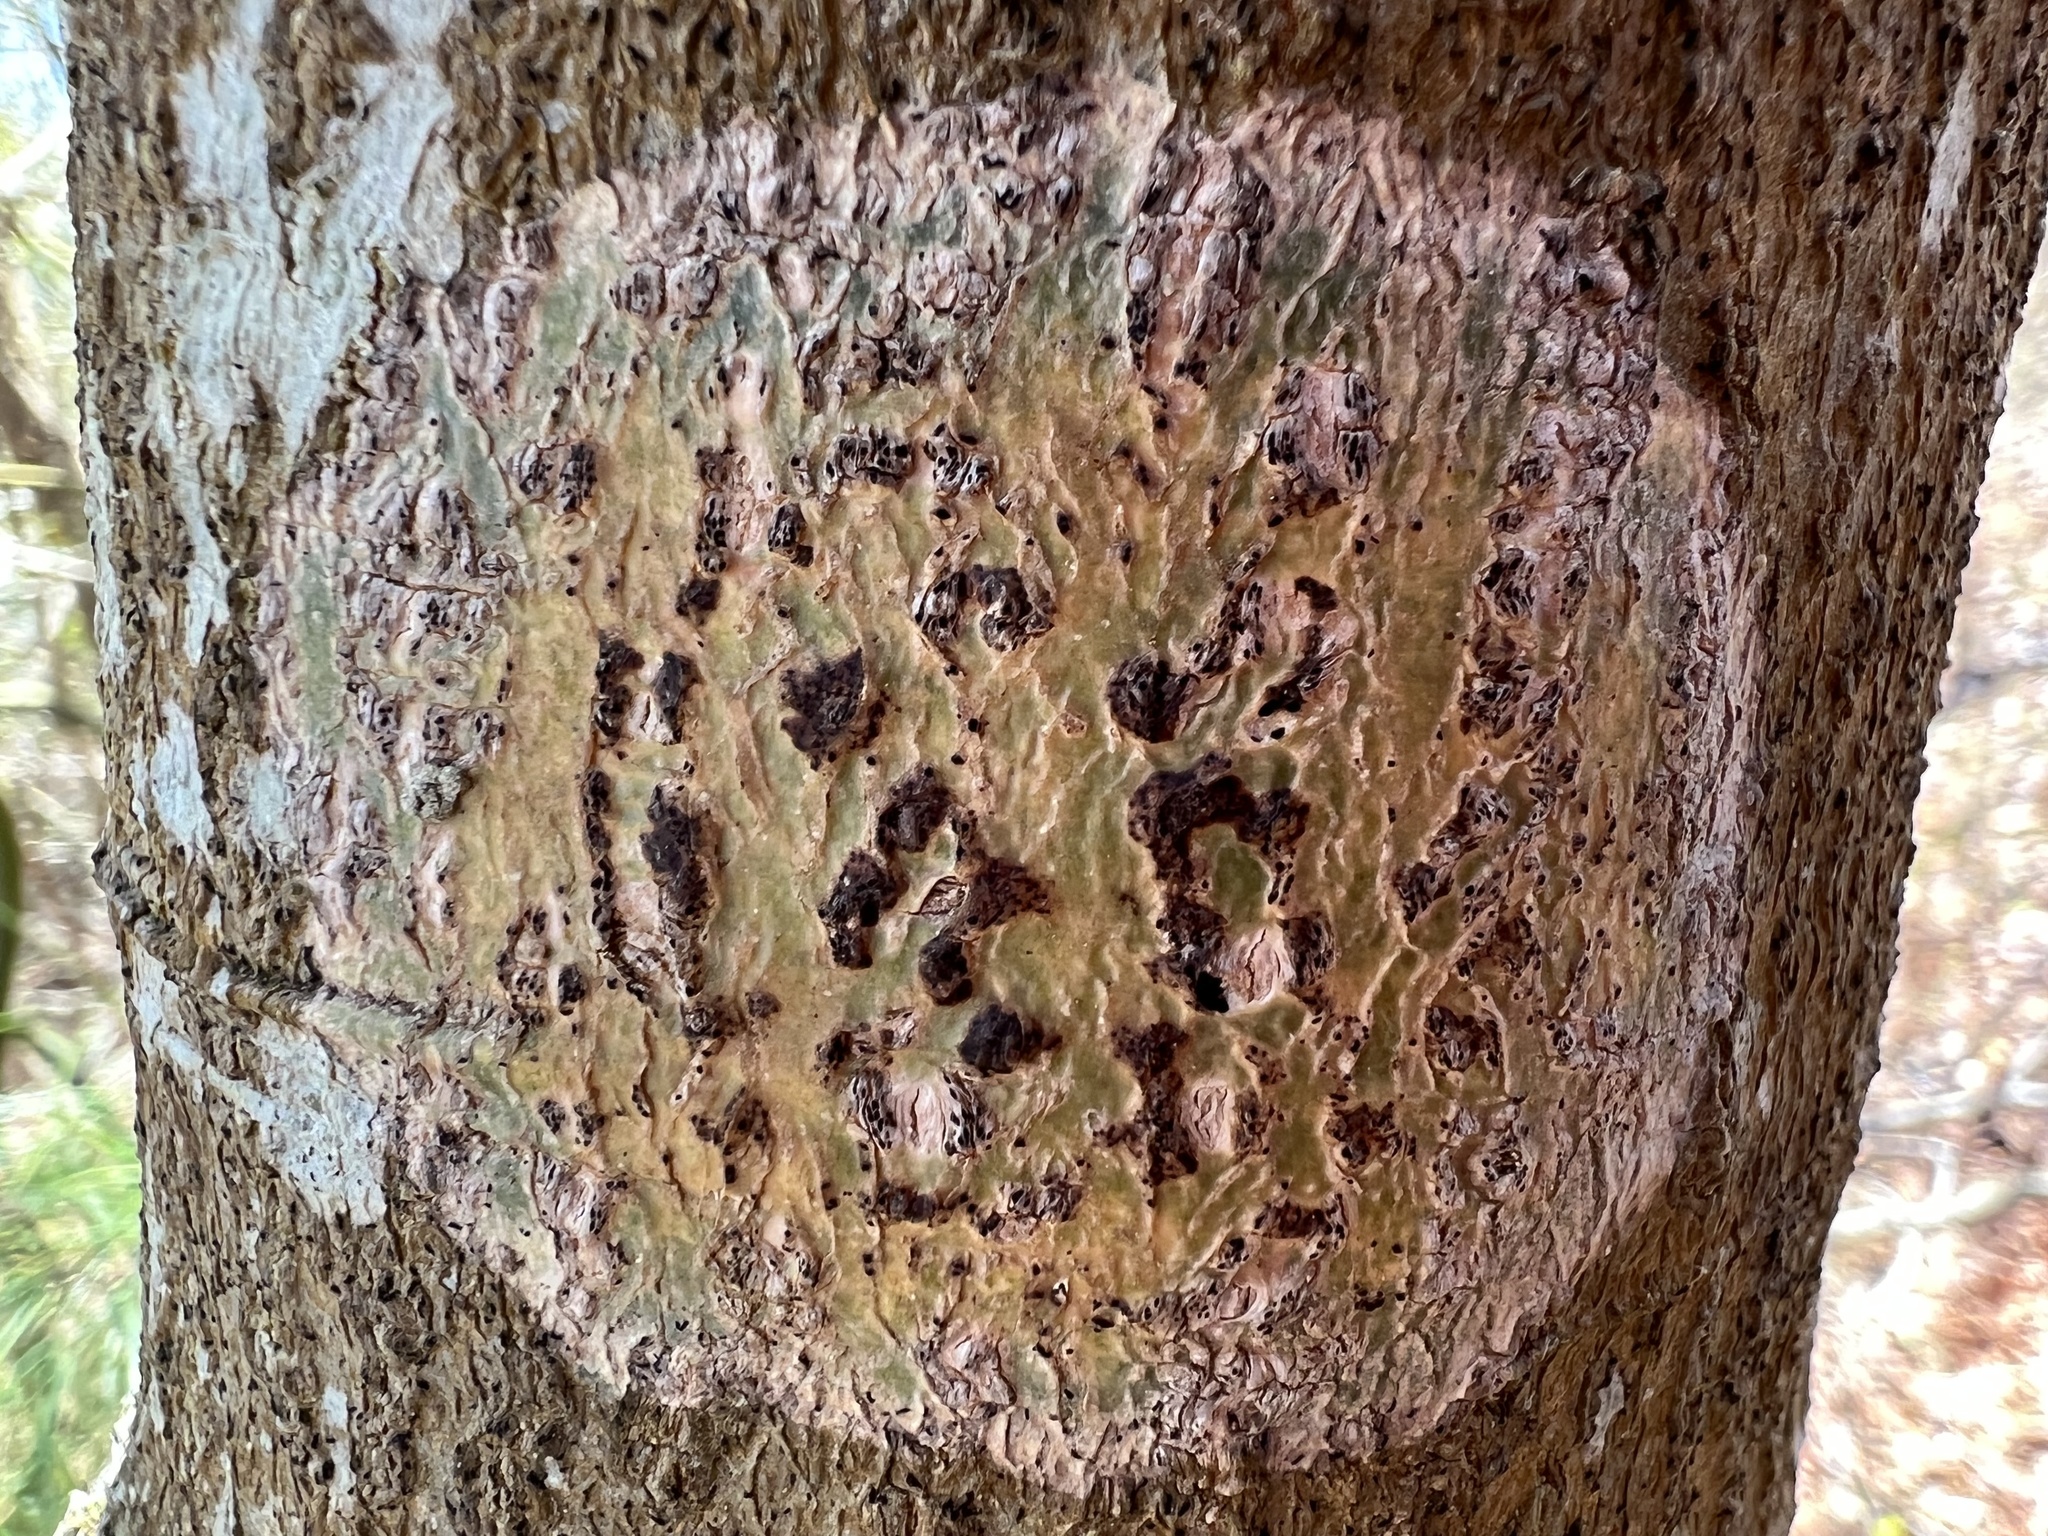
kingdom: Fungi
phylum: Ascomycota
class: Dothideomycetes
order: Trypetheliales
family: Trypetheliaceae
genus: Viridothelium
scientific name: Viridothelium virens
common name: Speckled blister lichen
